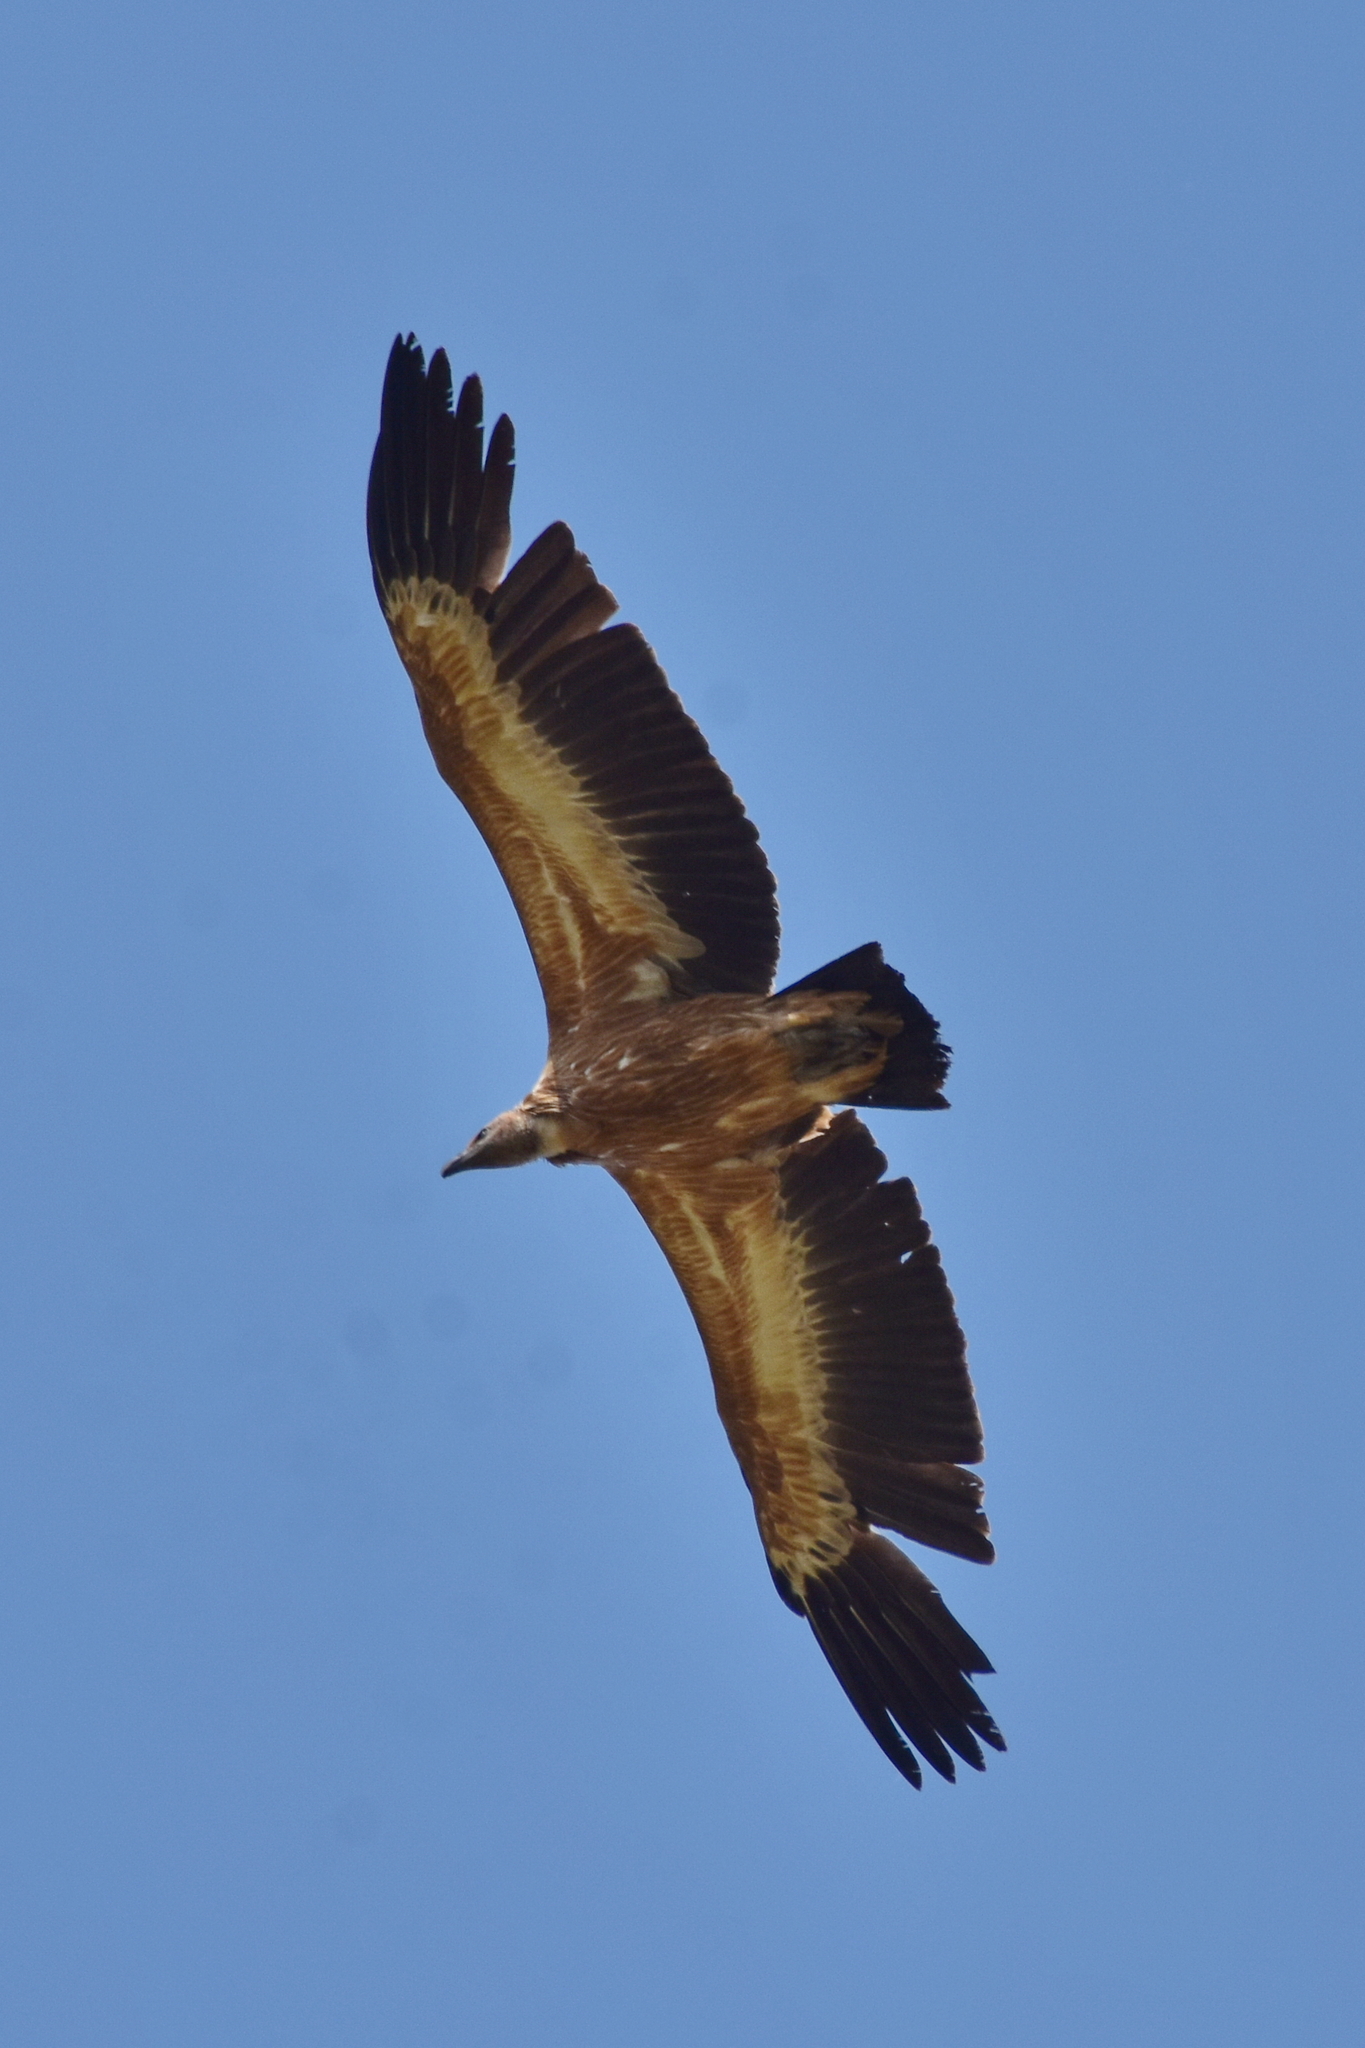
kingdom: Animalia
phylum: Chordata
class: Aves
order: Accipitriformes
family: Accipitridae
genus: Gyps
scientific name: Gyps fulvus
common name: Griffon vulture
